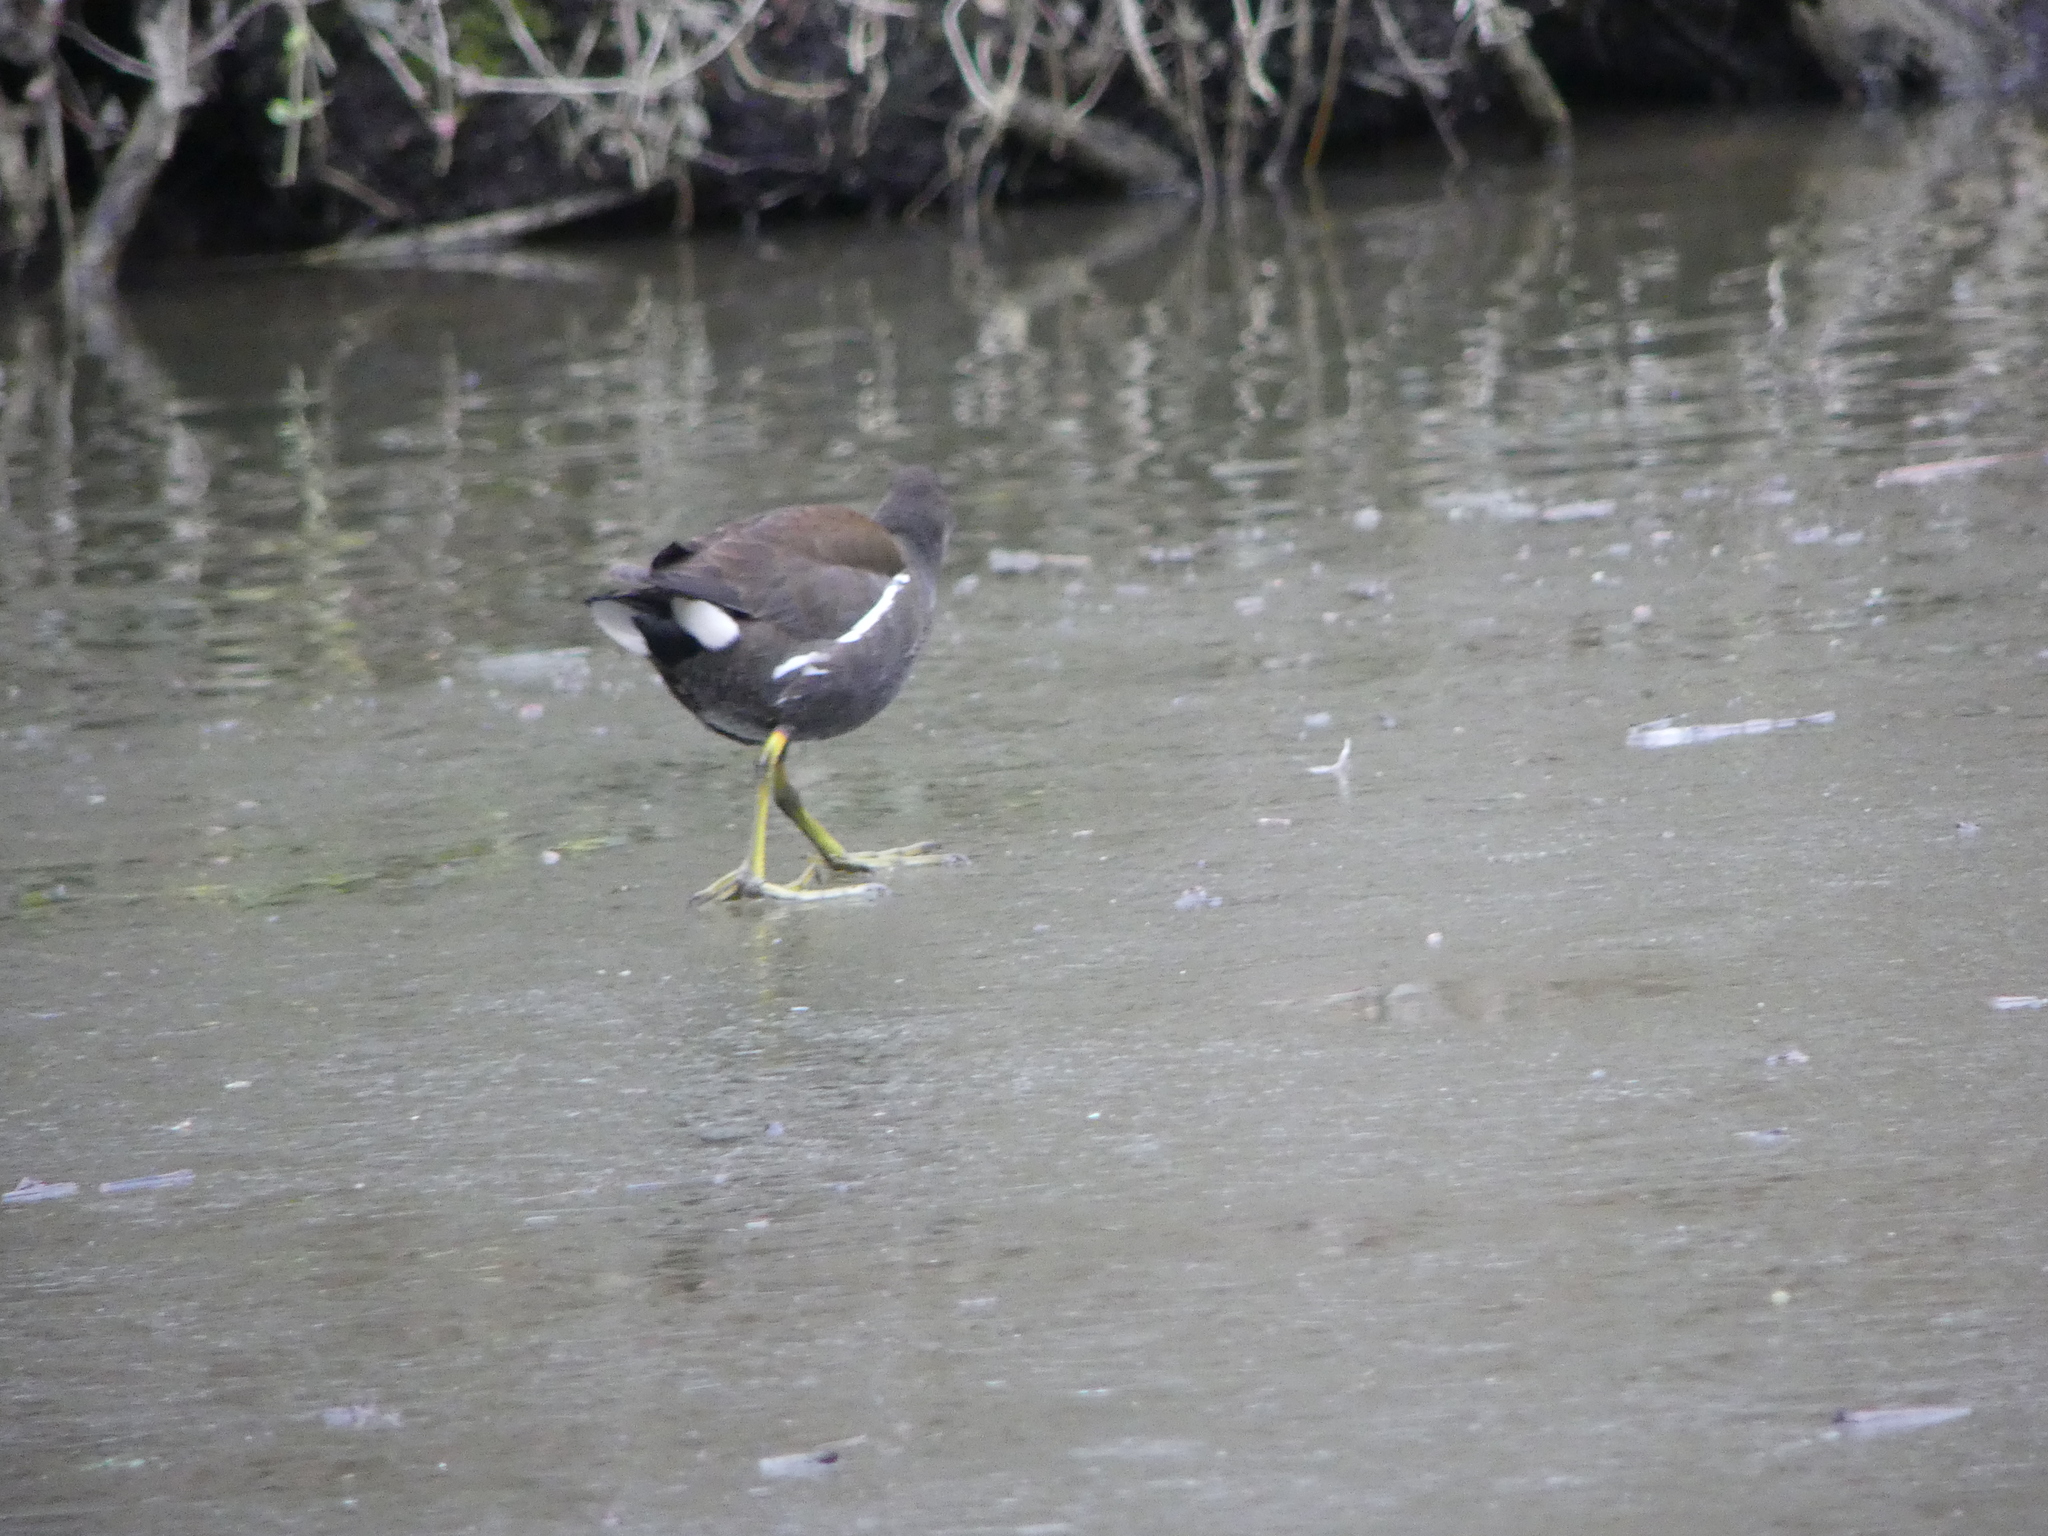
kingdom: Animalia
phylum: Chordata
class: Aves
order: Gruiformes
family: Rallidae
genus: Gallinula
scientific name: Gallinula chloropus
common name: Common moorhen
